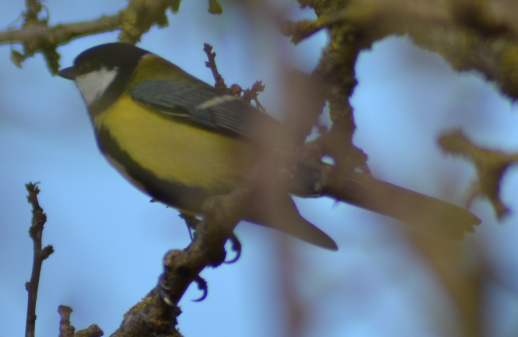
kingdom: Animalia
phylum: Chordata
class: Aves
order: Passeriformes
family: Paridae
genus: Parus
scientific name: Parus major
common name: Great tit
